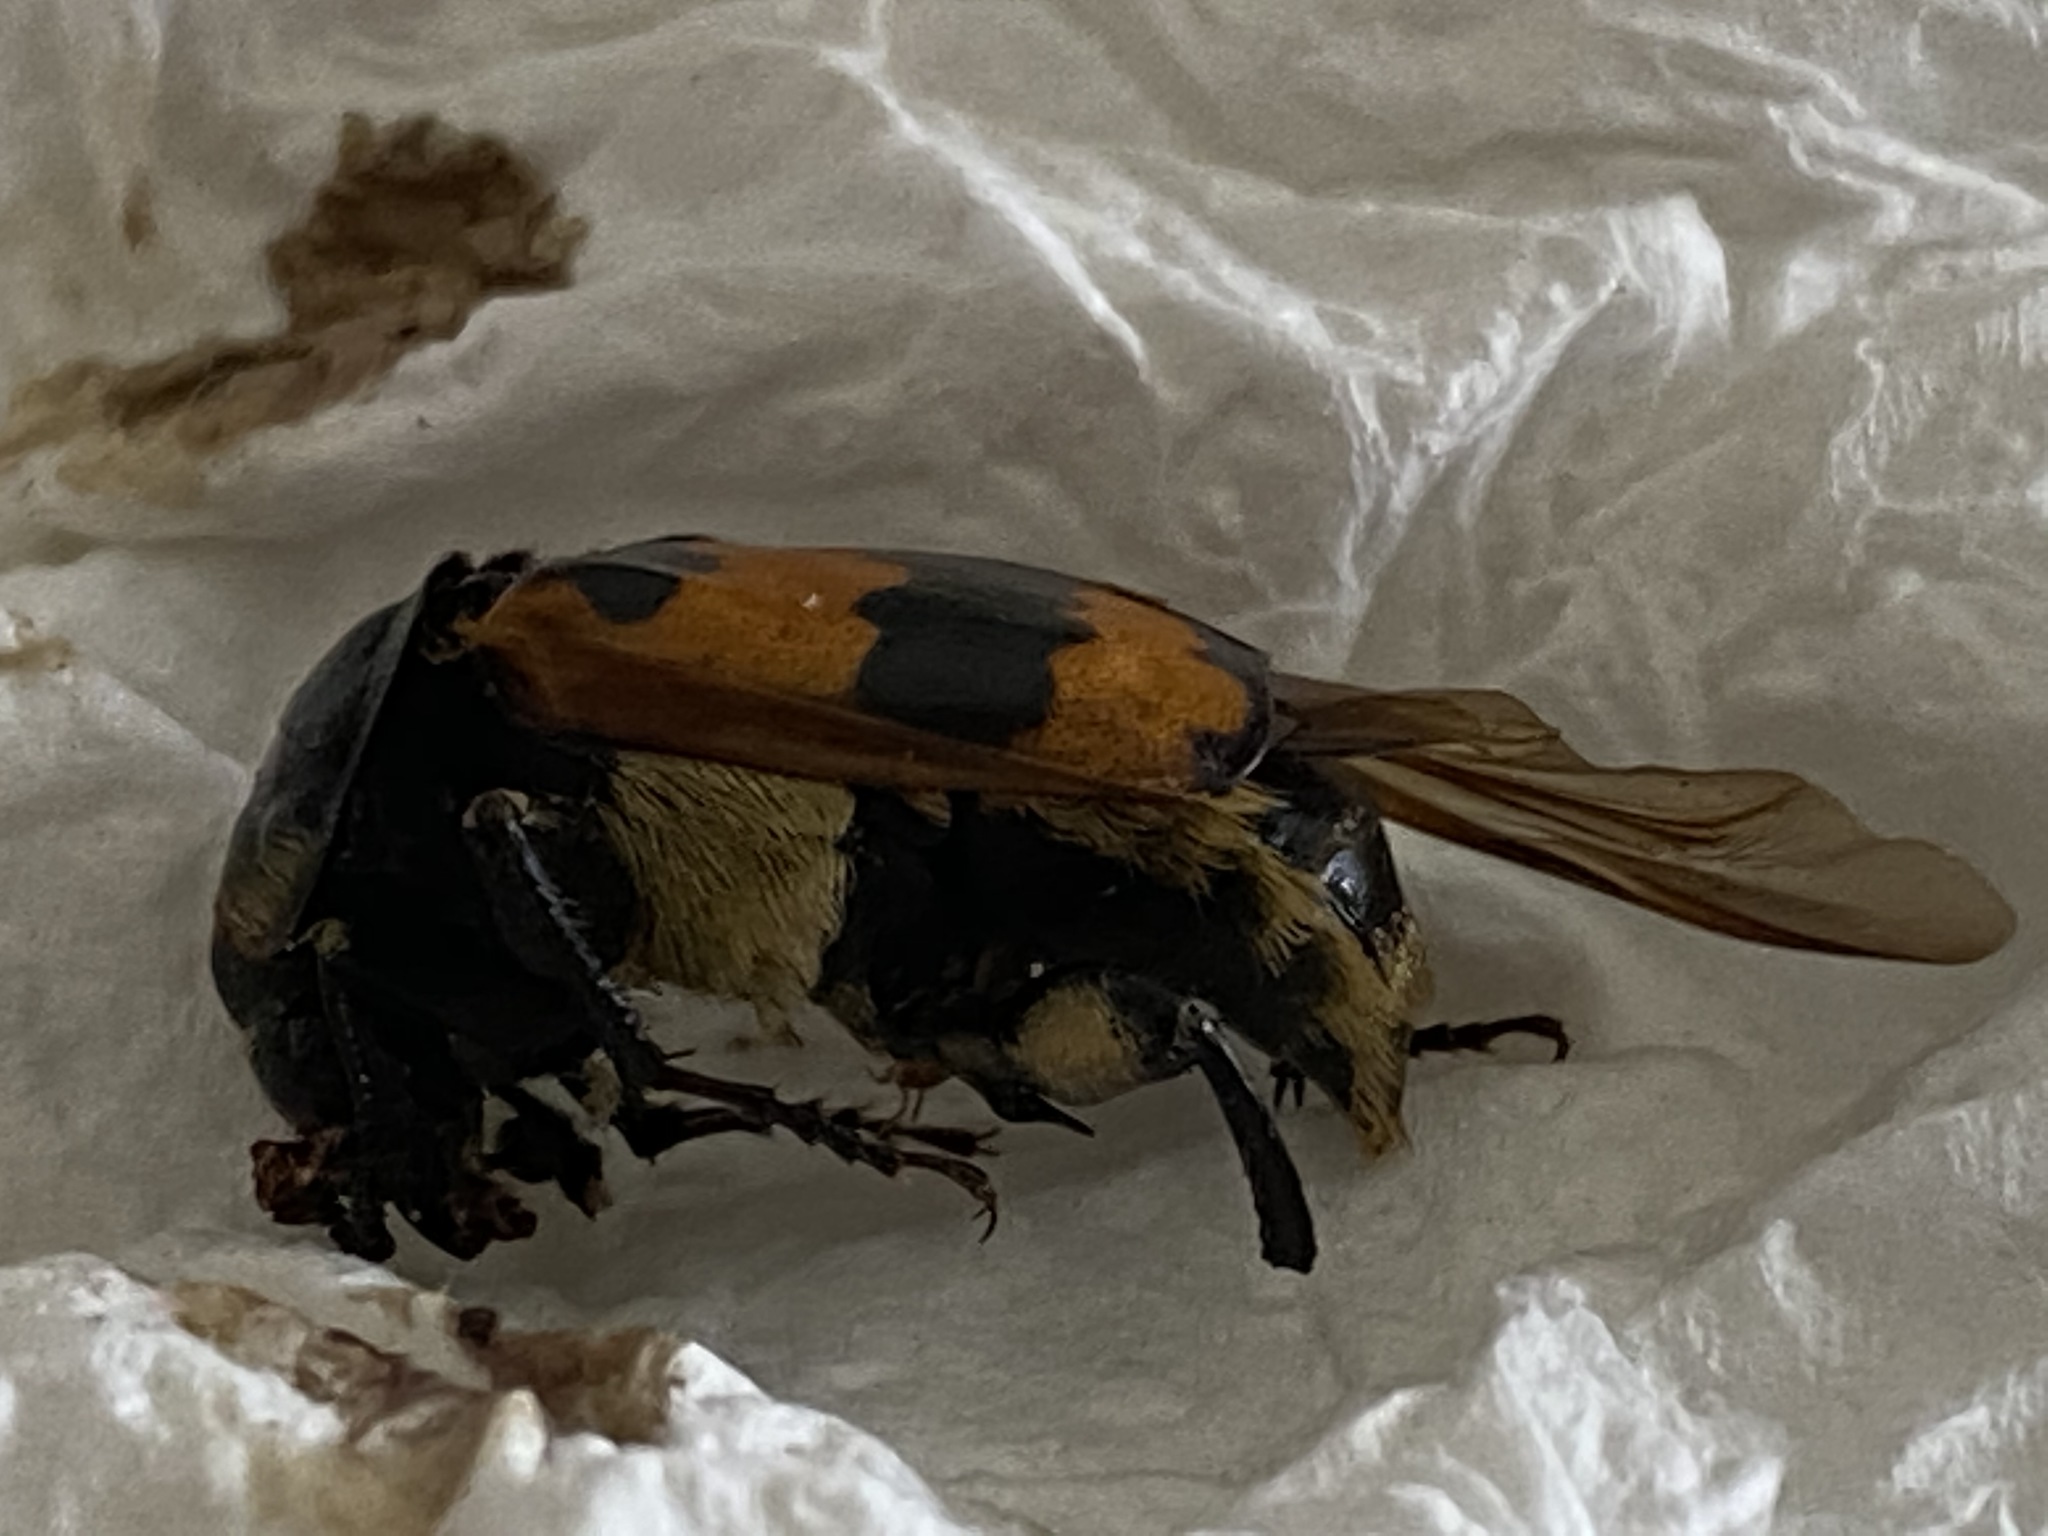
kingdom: Animalia
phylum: Arthropoda
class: Insecta
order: Coleoptera
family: Staphylinidae
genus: Nicrophorus
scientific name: Nicrophorus vespillo
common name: Common burying beetle
